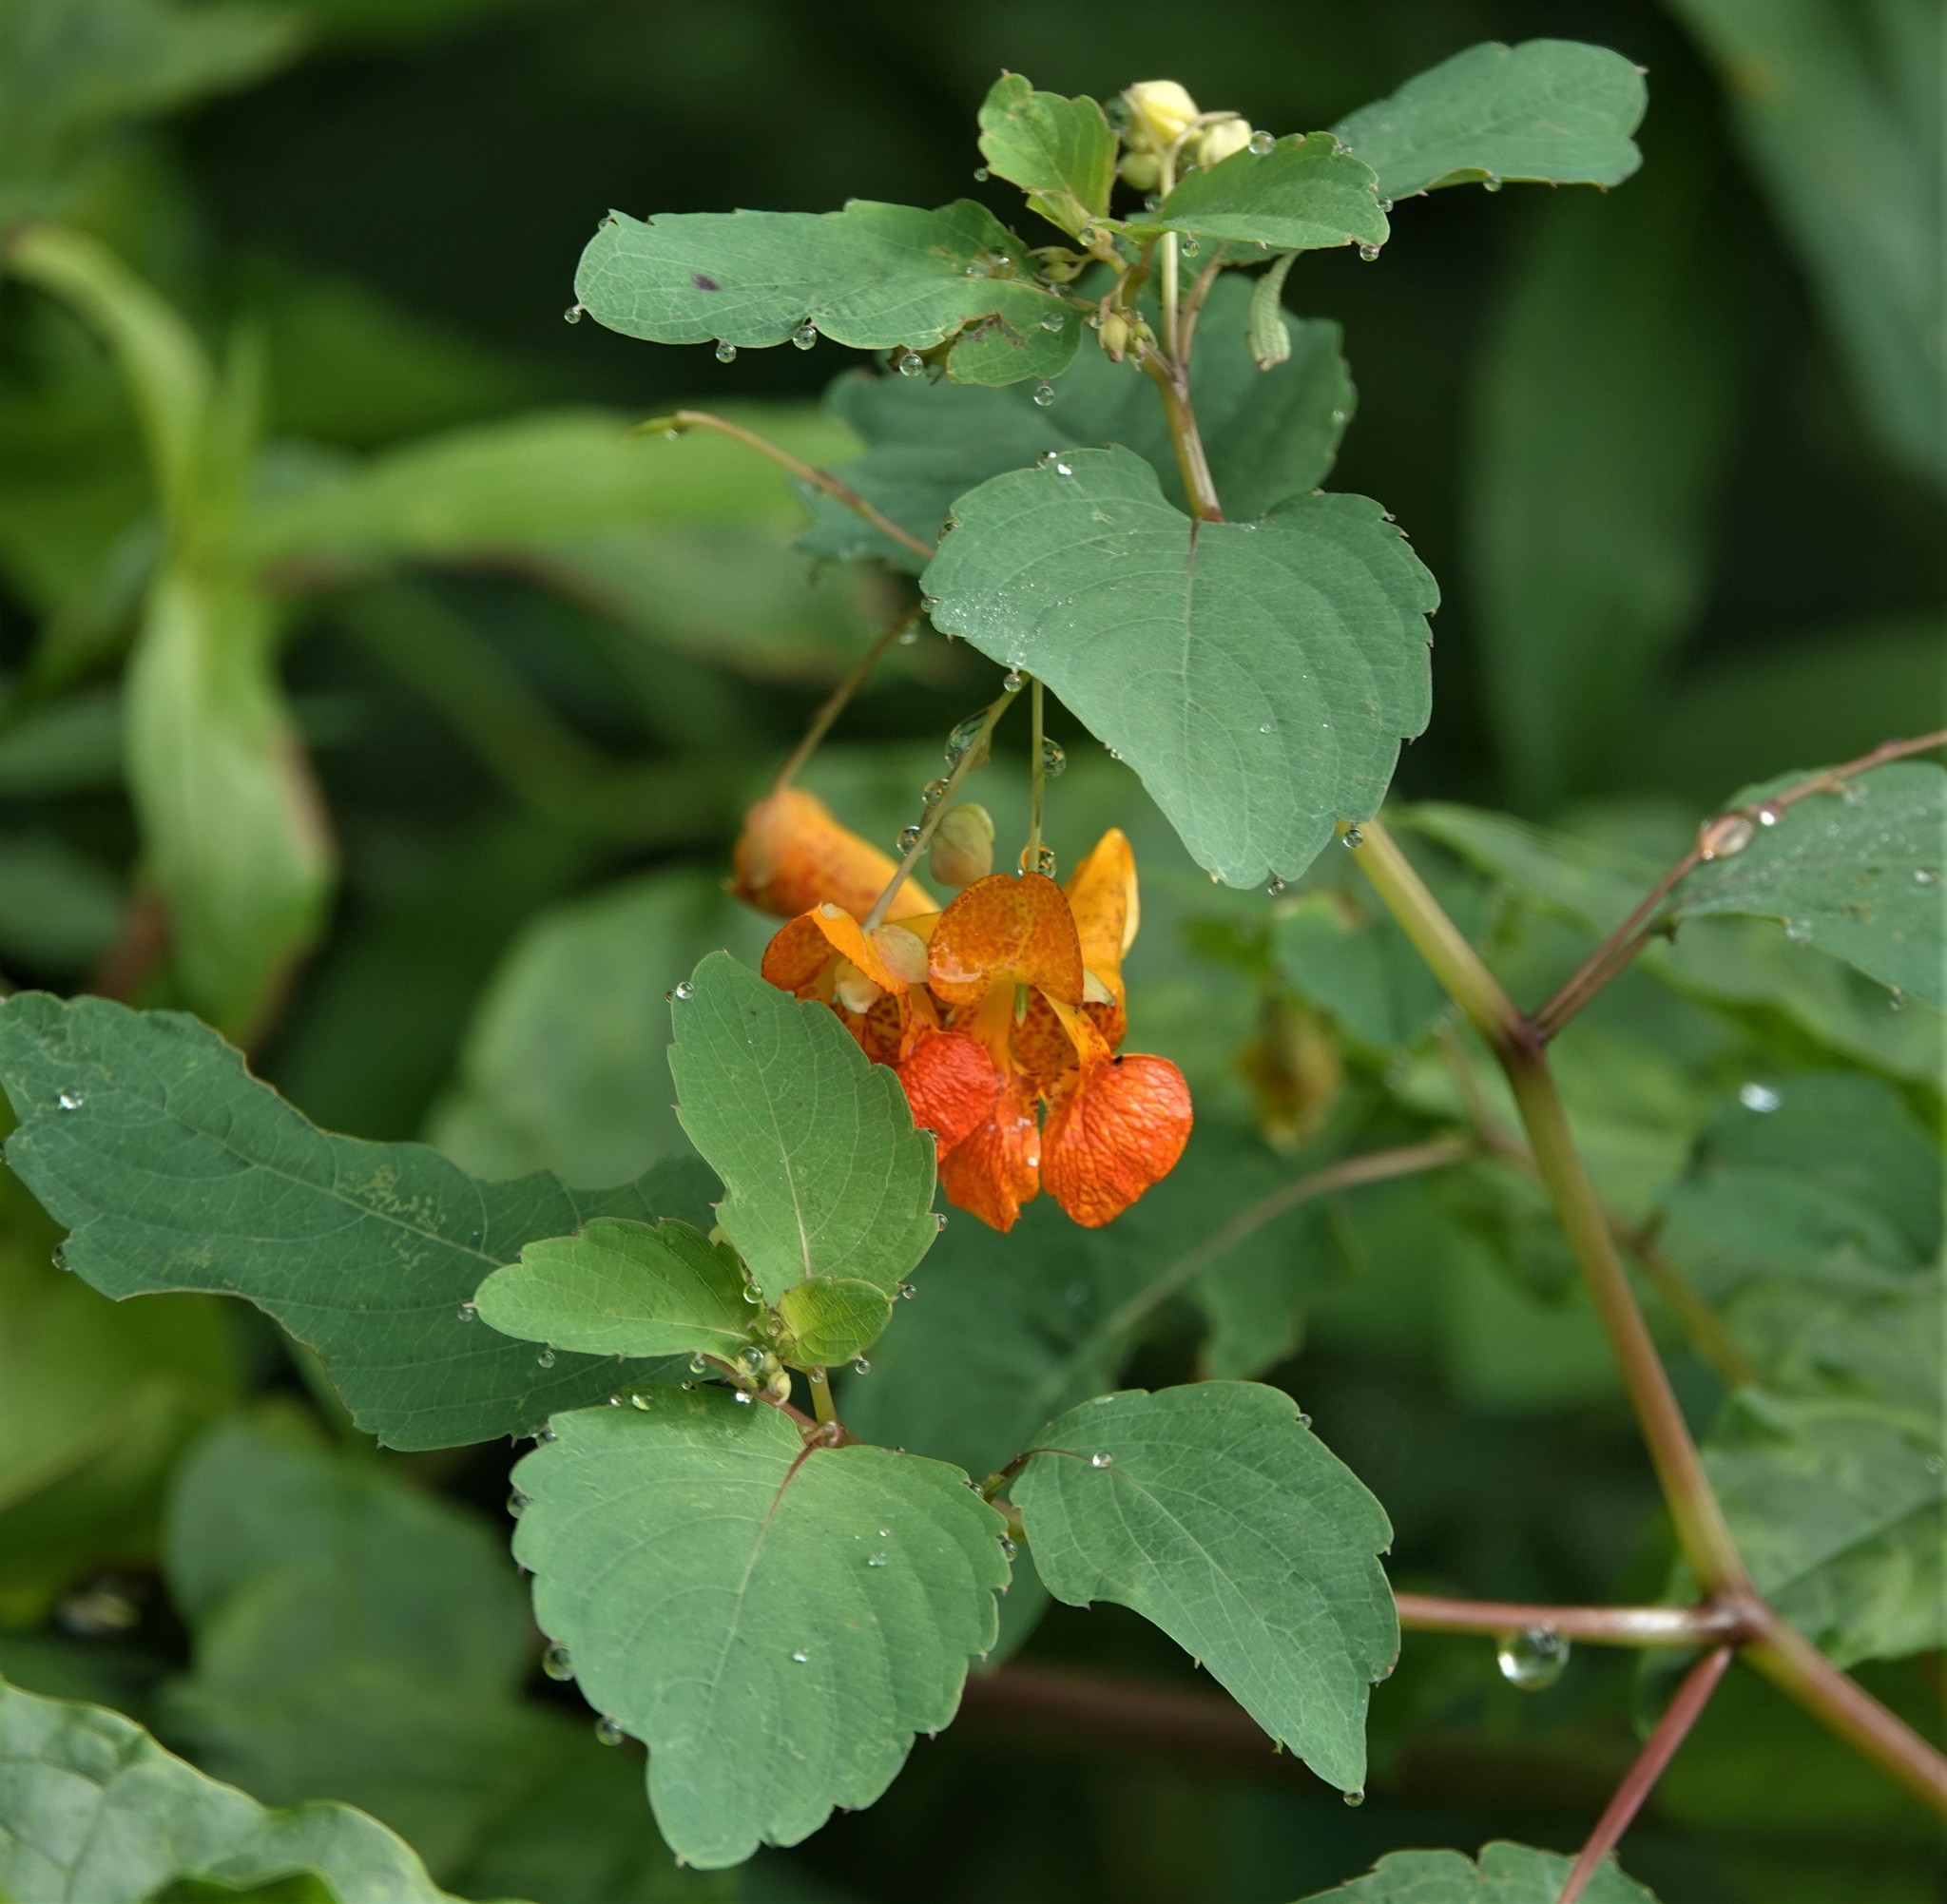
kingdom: Plantae
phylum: Tracheophyta
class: Magnoliopsida
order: Ericales
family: Balsaminaceae
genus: Impatiens
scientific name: Impatiens capensis
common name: Orange balsam
